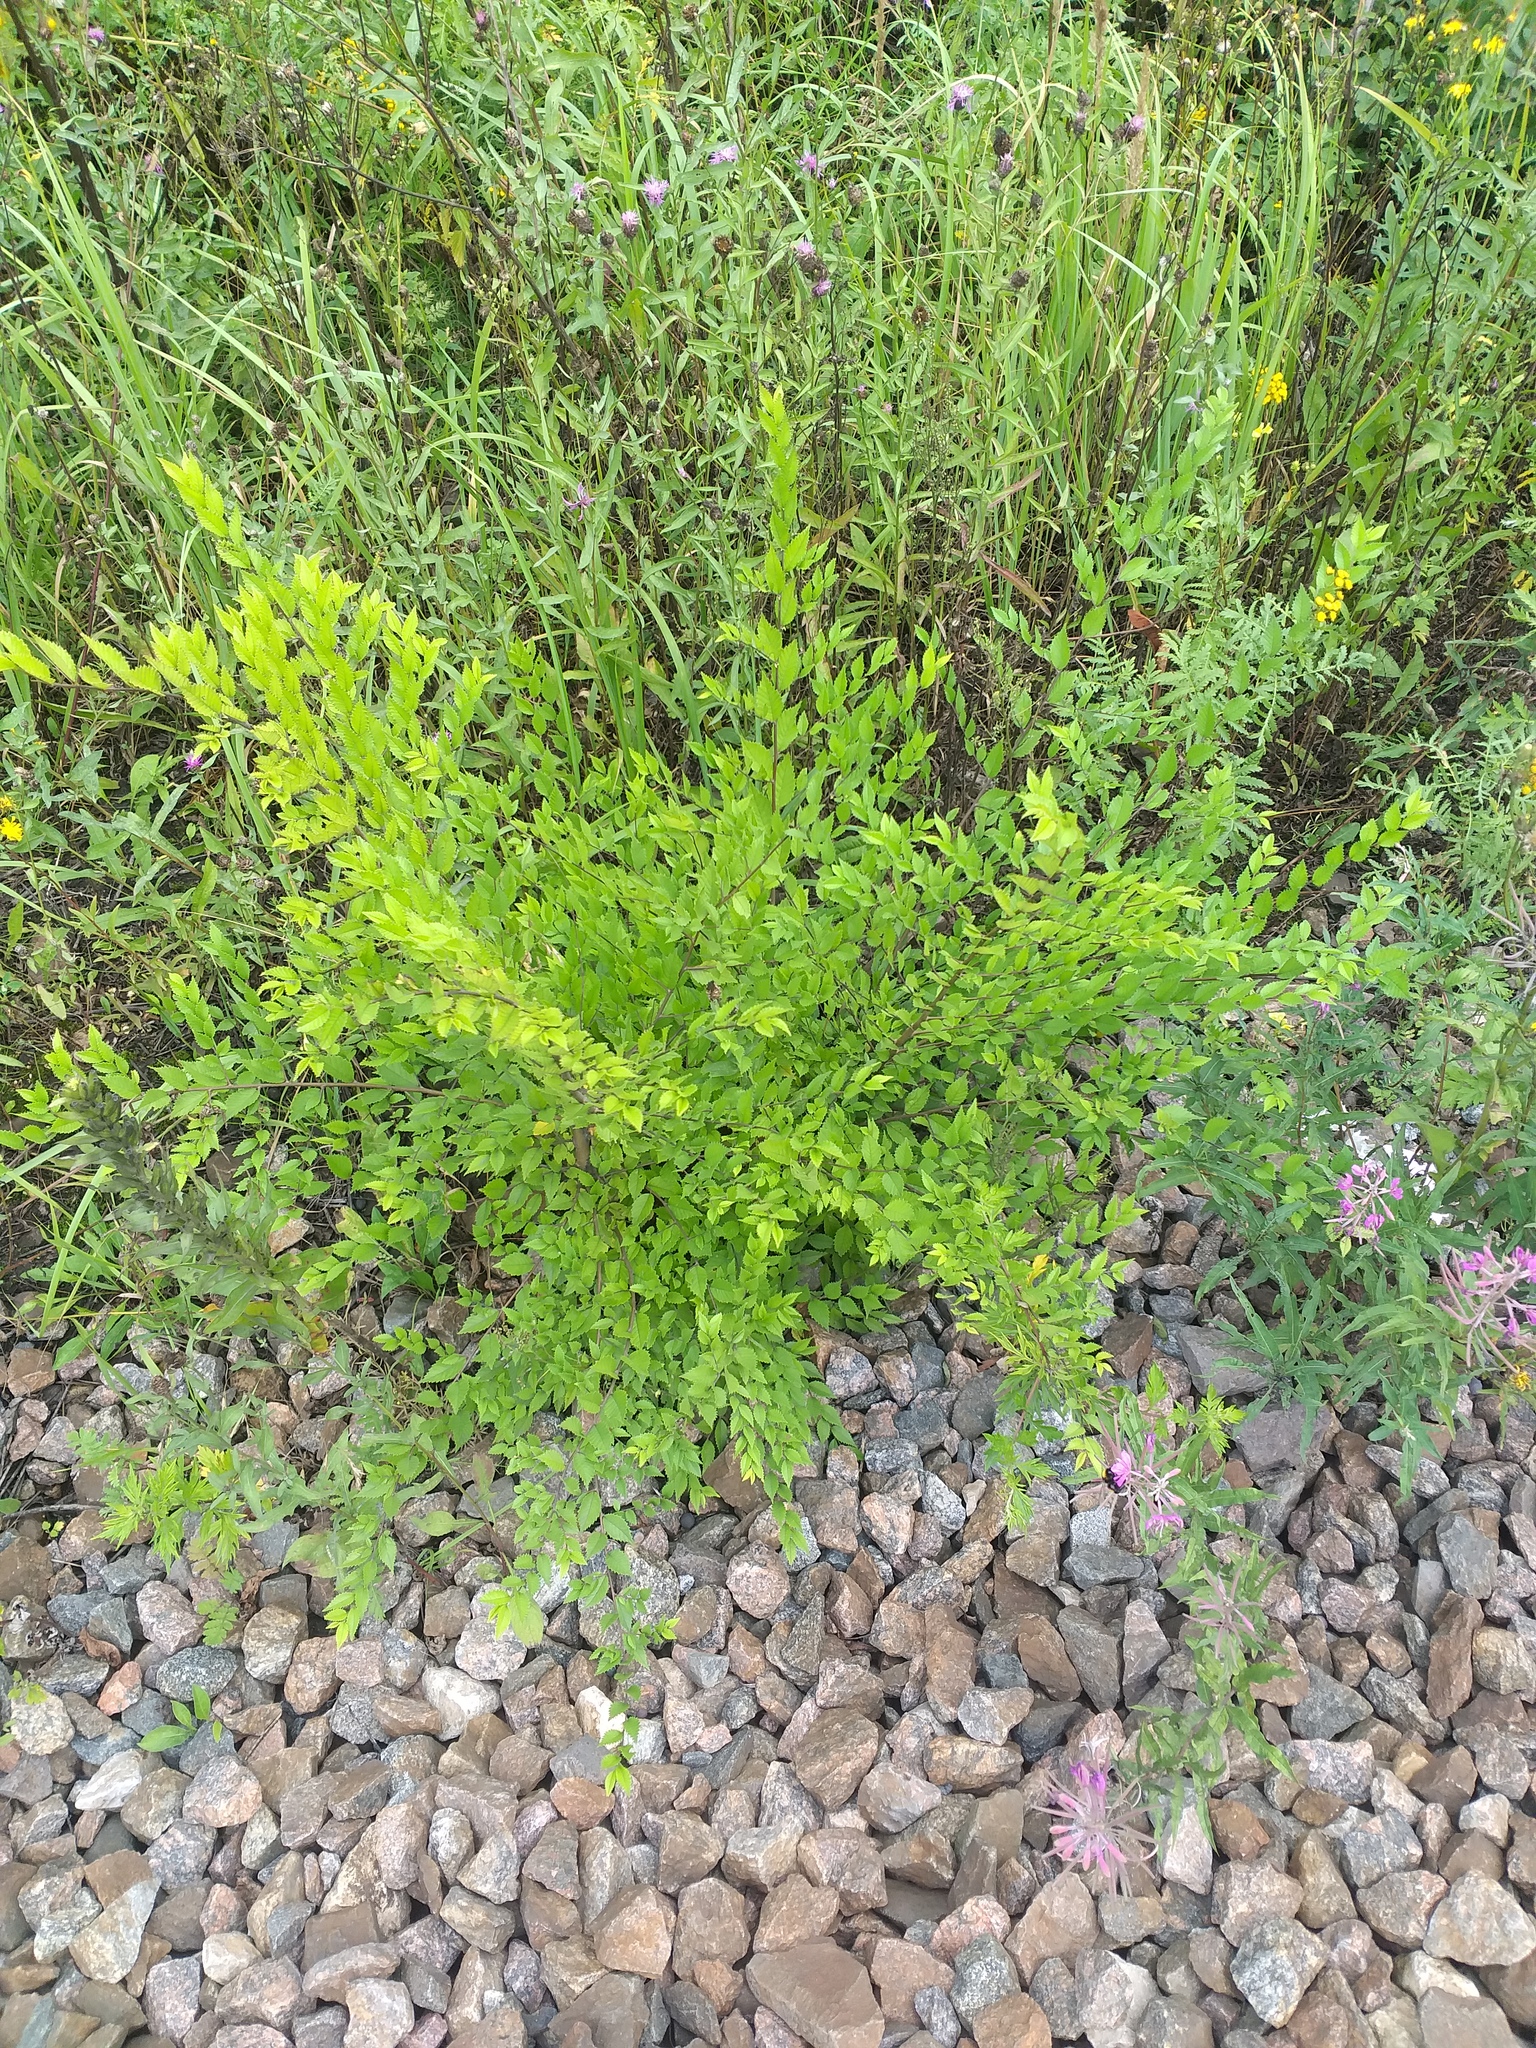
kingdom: Plantae
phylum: Tracheophyta
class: Magnoliopsida
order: Rosales
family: Ulmaceae
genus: Ulmus
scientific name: Ulmus pumila
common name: Siberian elm
